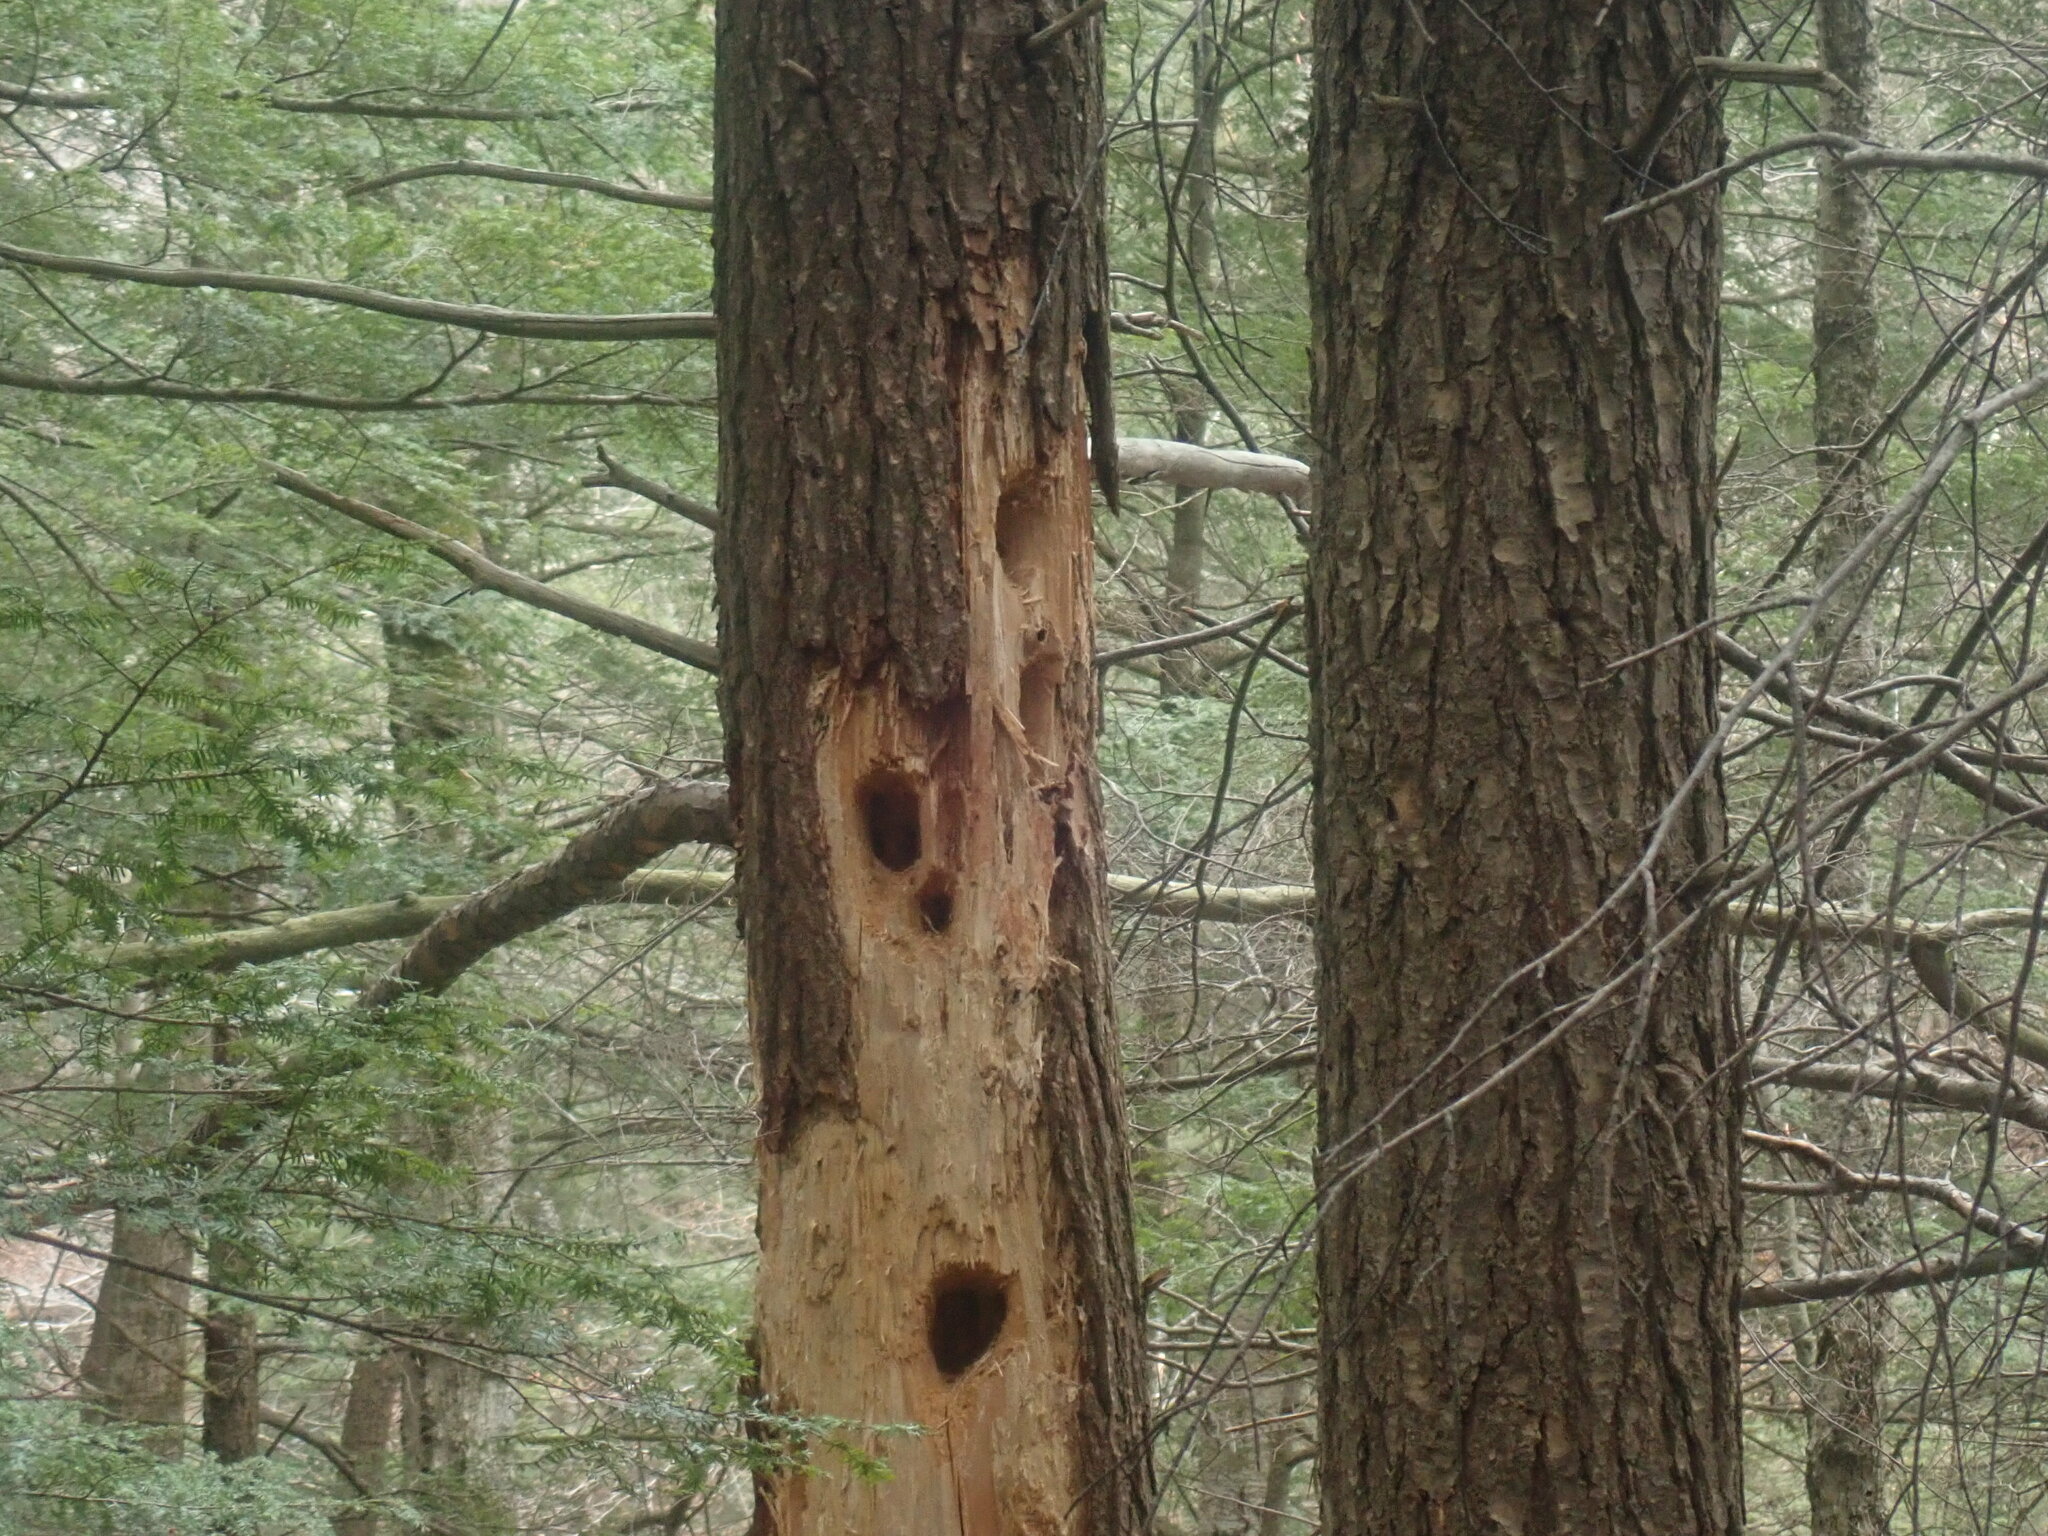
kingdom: Animalia
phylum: Chordata
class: Aves
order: Piciformes
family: Picidae
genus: Dryocopus
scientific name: Dryocopus pileatus
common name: Pileated woodpecker
